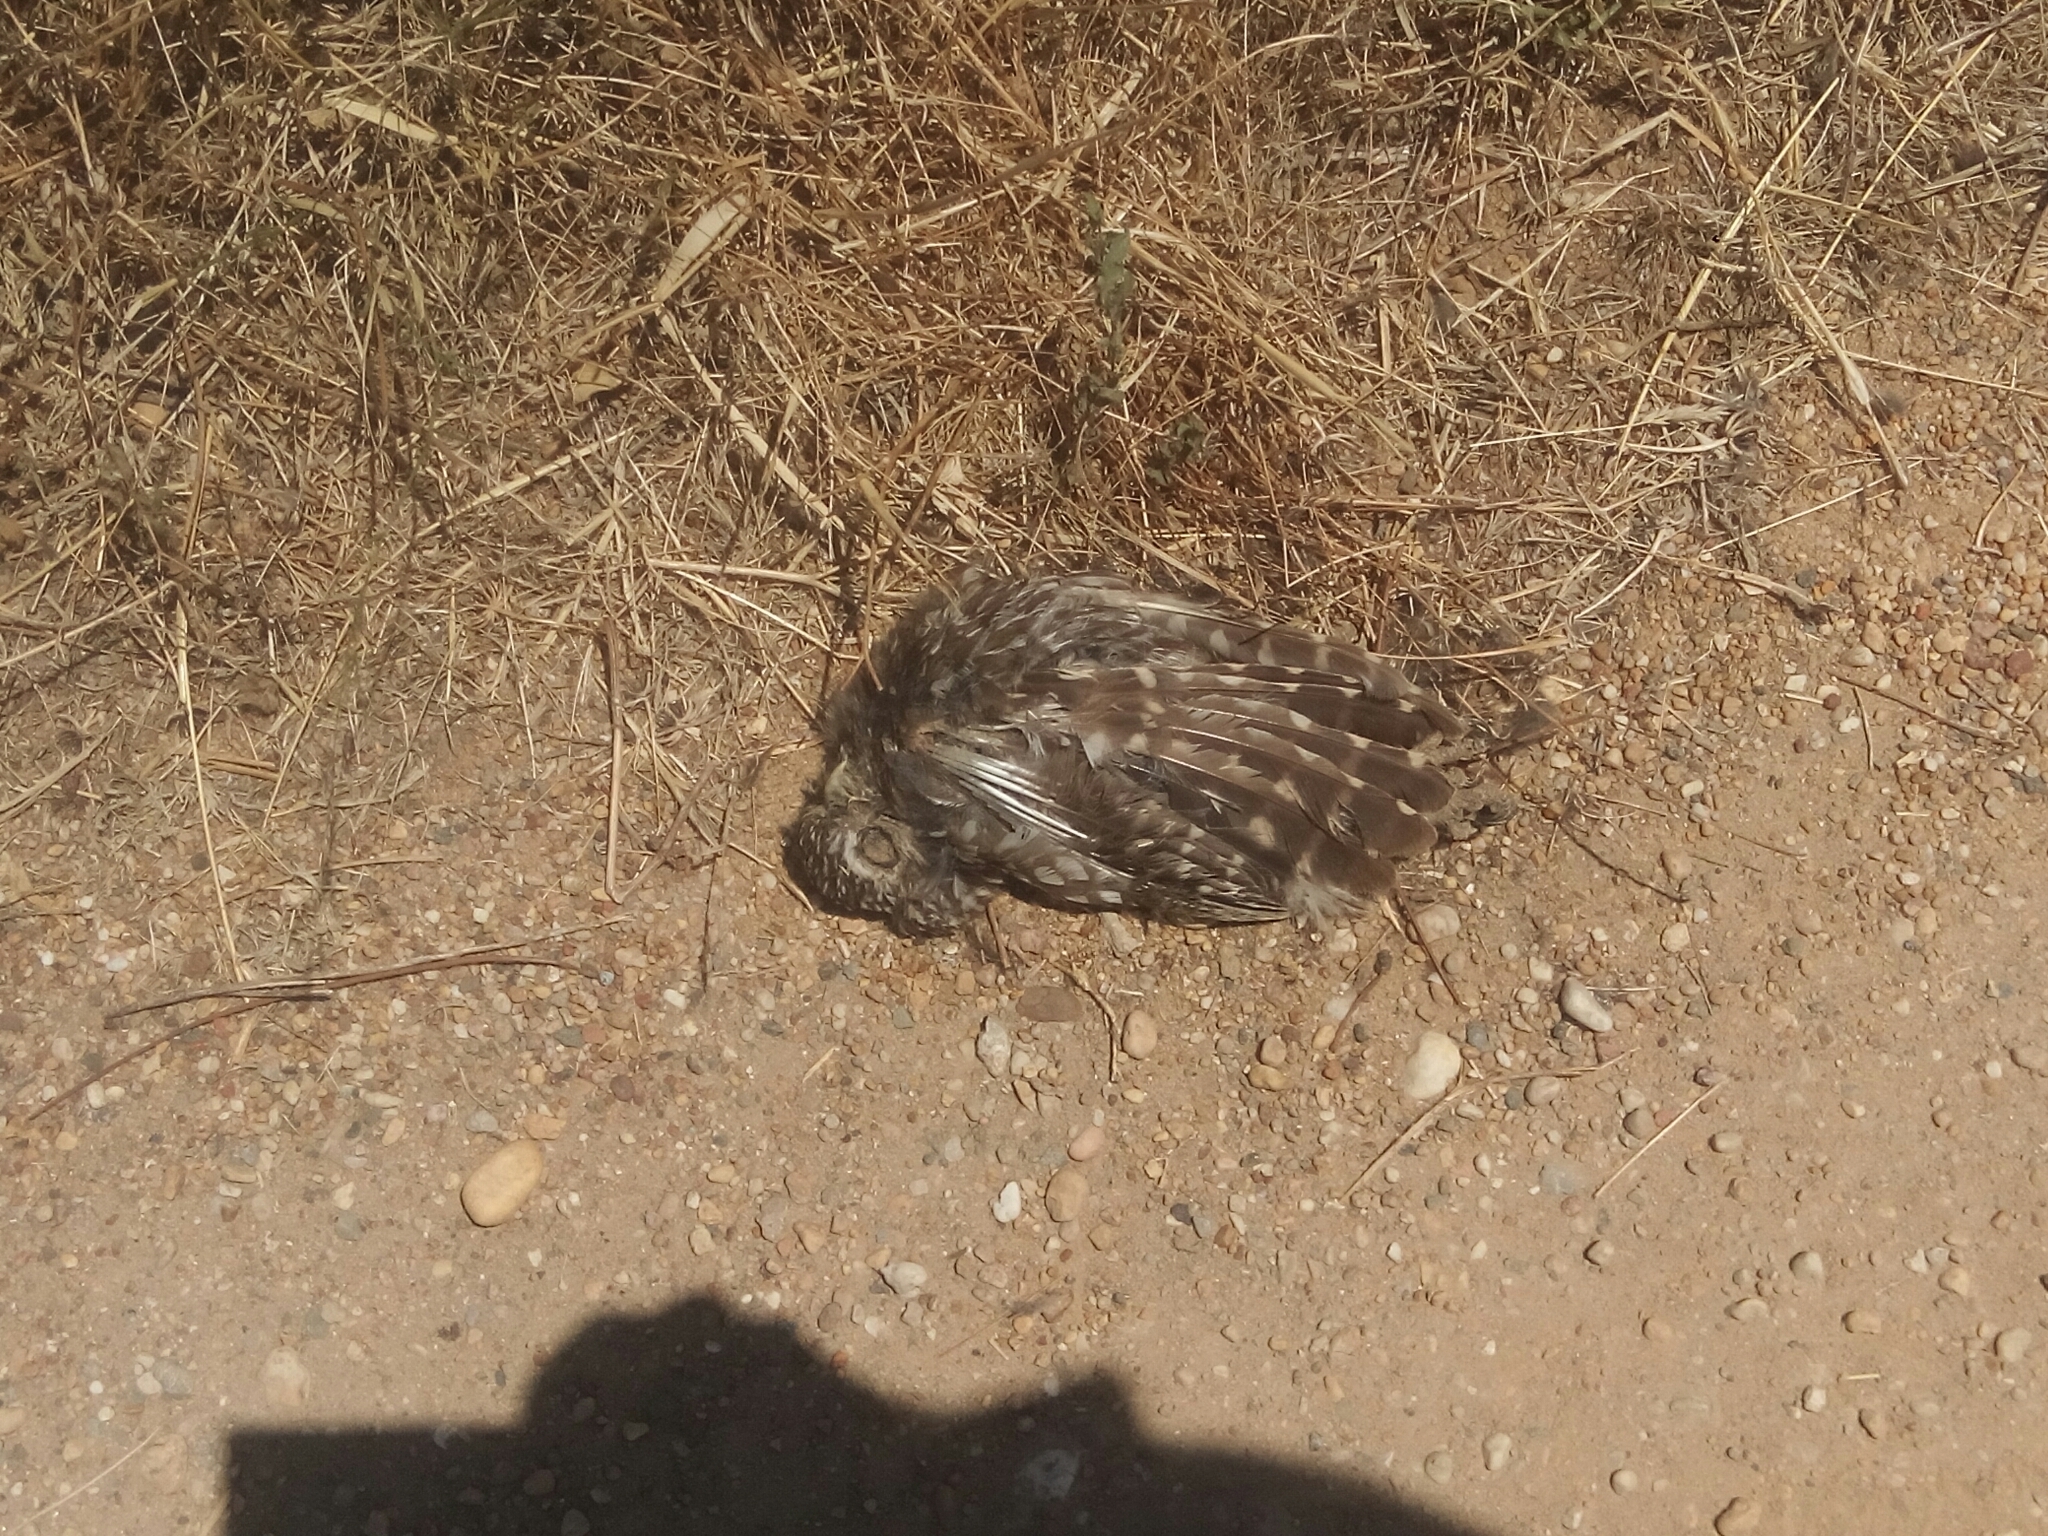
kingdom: Animalia
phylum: Chordata
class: Aves
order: Strigiformes
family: Strigidae
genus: Athene
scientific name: Athene noctua
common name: Little owl
